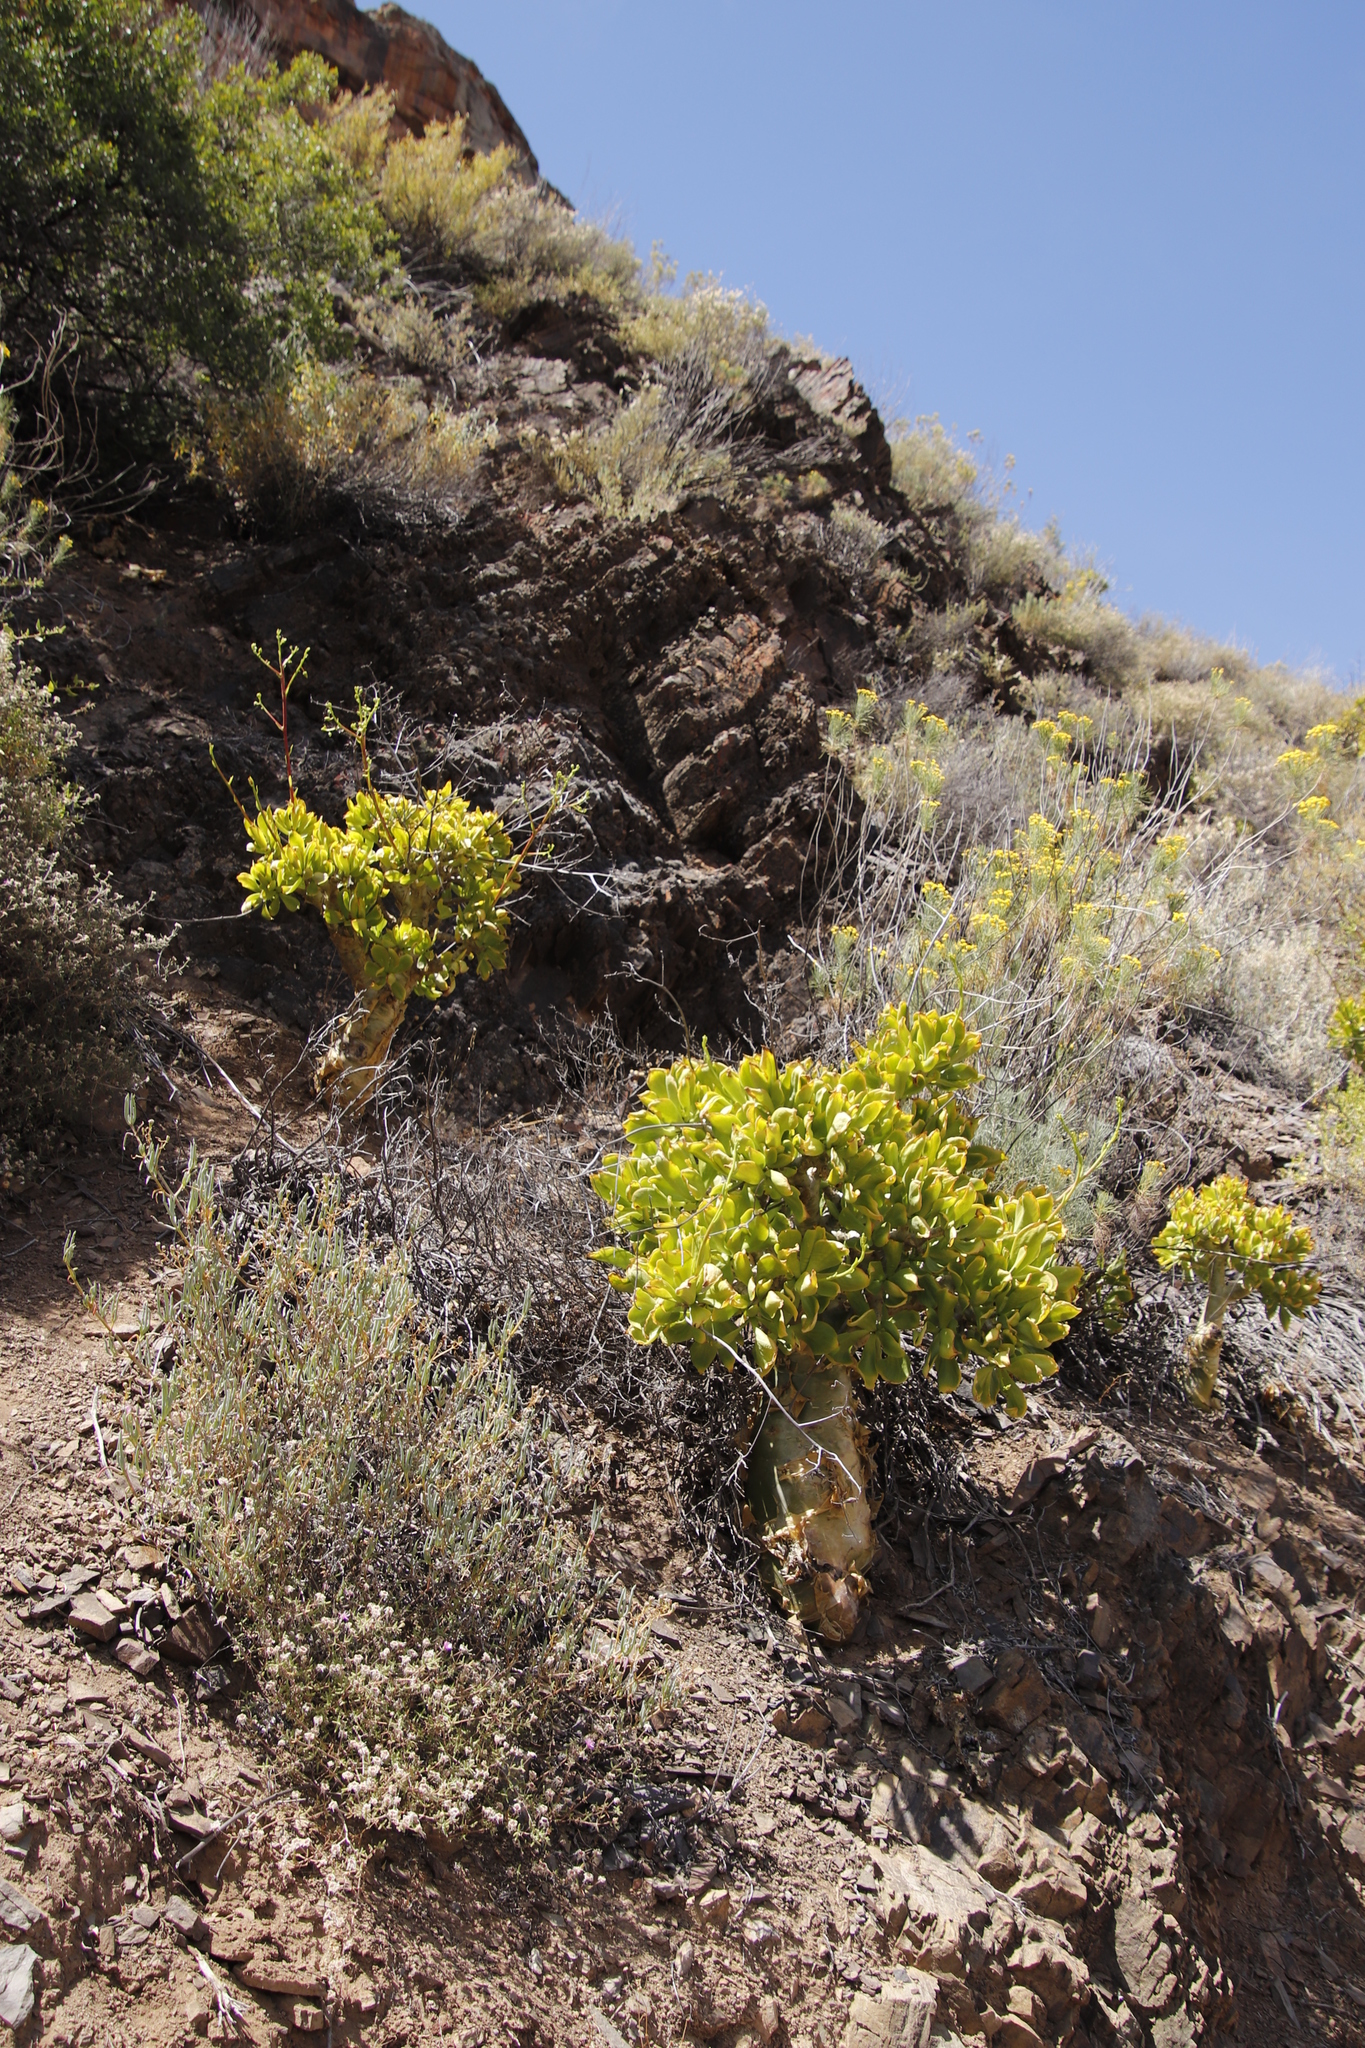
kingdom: Plantae
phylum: Tracheophyta
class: Magnoliopsida
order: Saxifragales
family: Crassulaceae
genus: Tylecodon
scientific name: Tylecodon paniculatus
